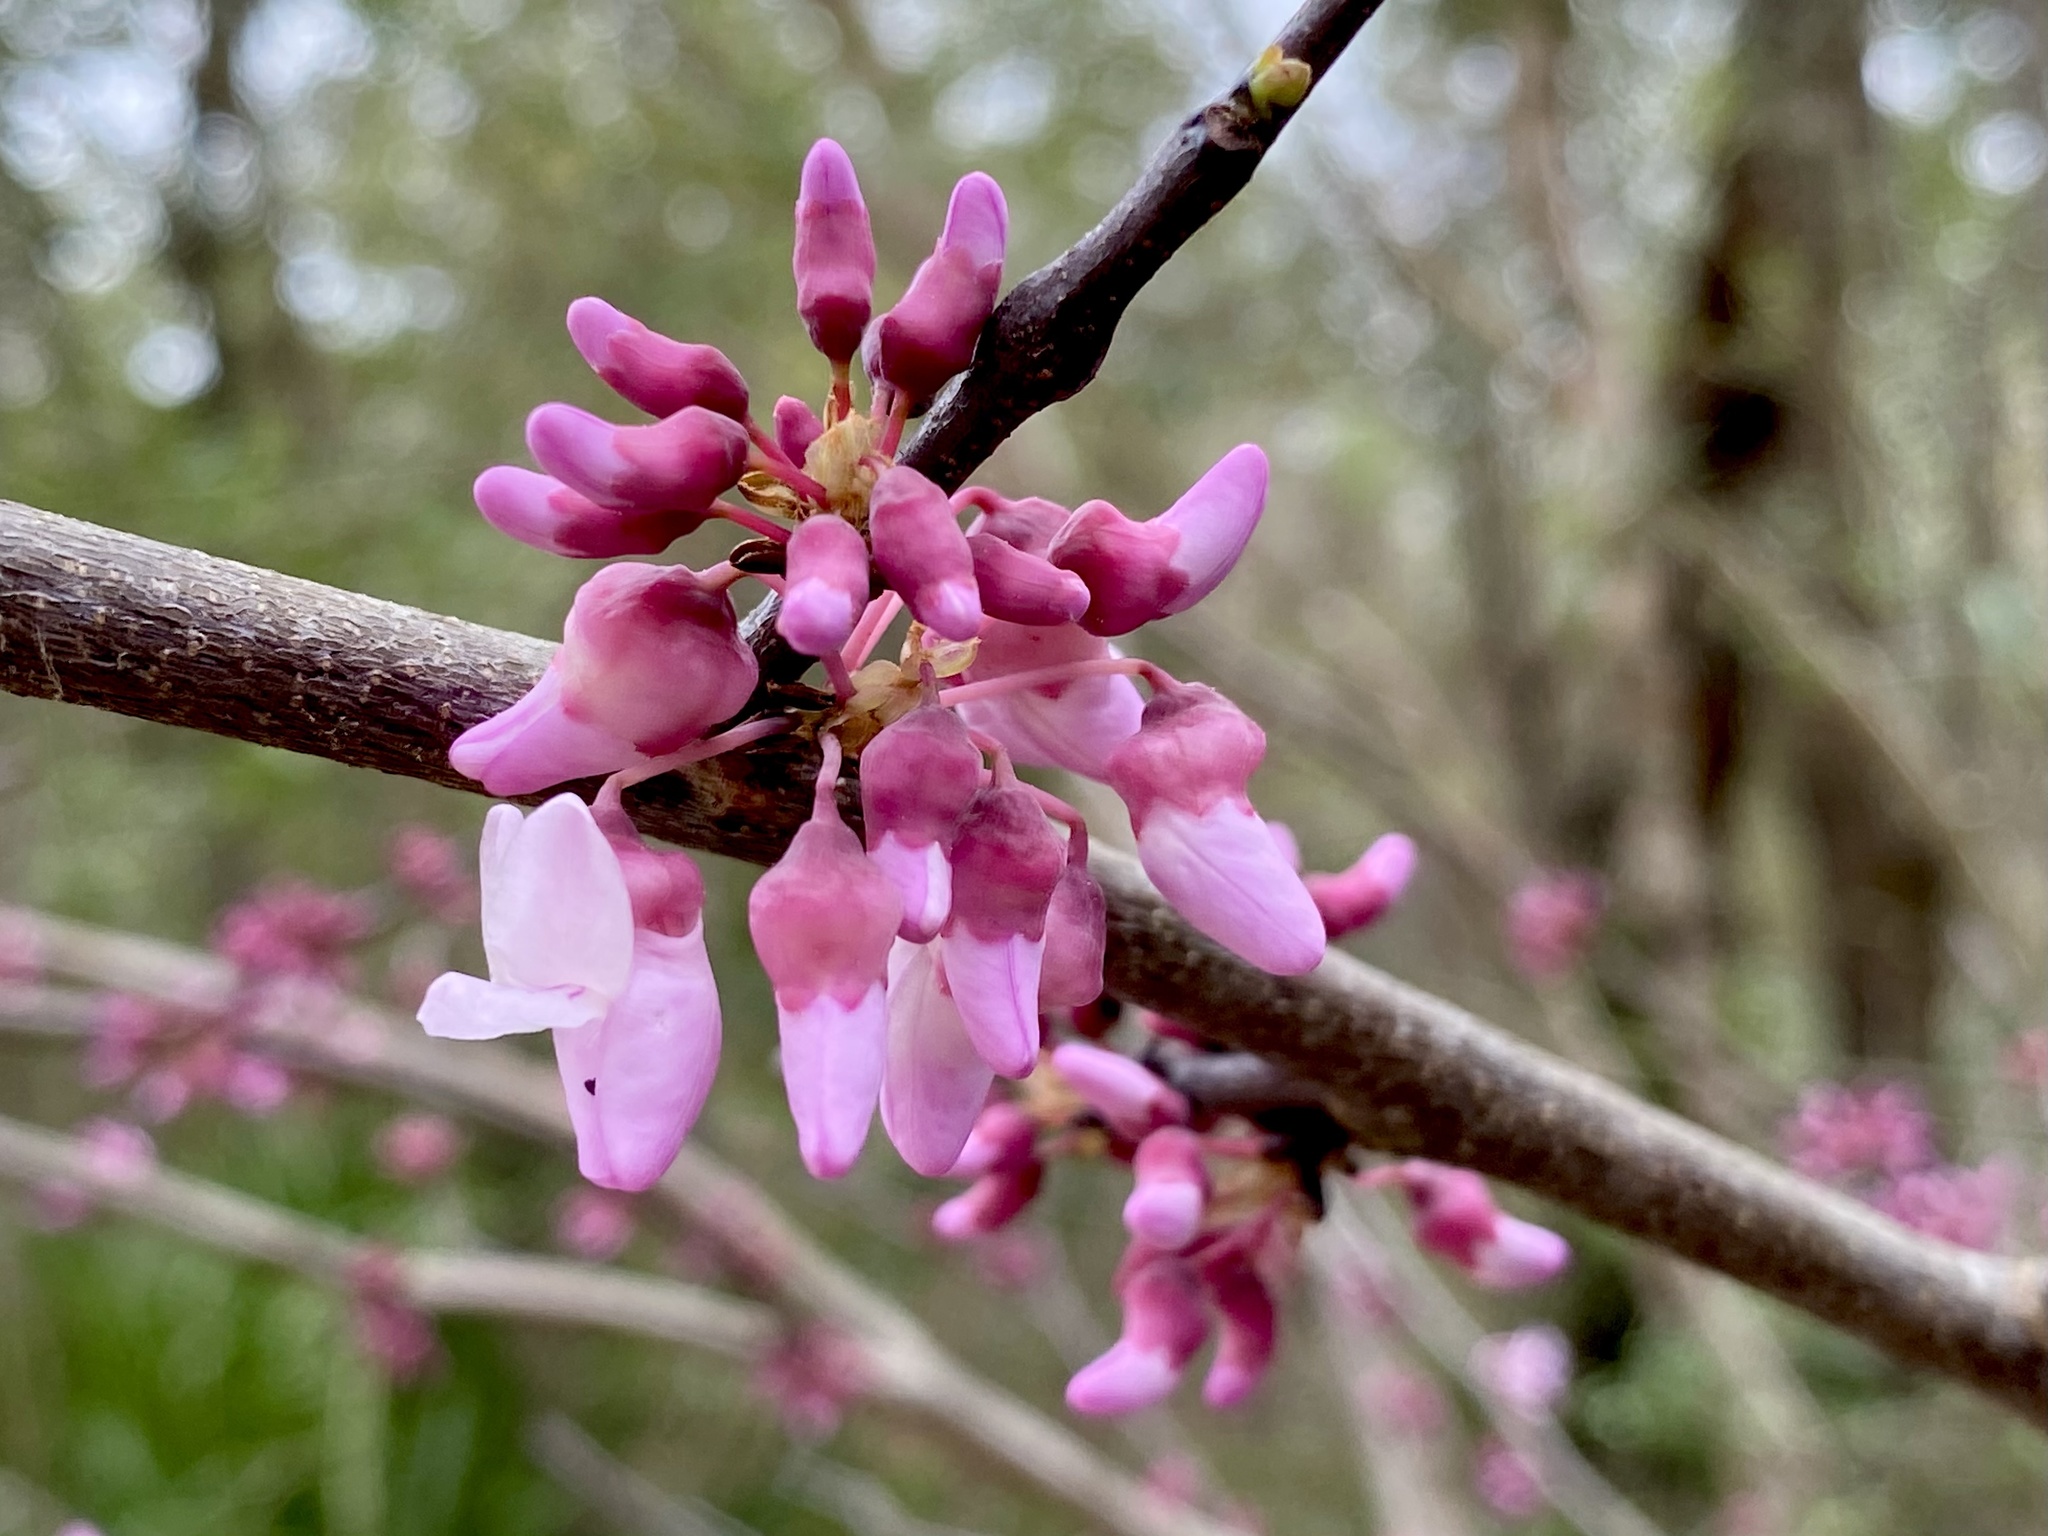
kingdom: Plantae
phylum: Tracheophyta
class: Magnoliopsida
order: Fabales
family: Fabaceae
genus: Cercis
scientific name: Cercis canadensis
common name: Eastern redbud
